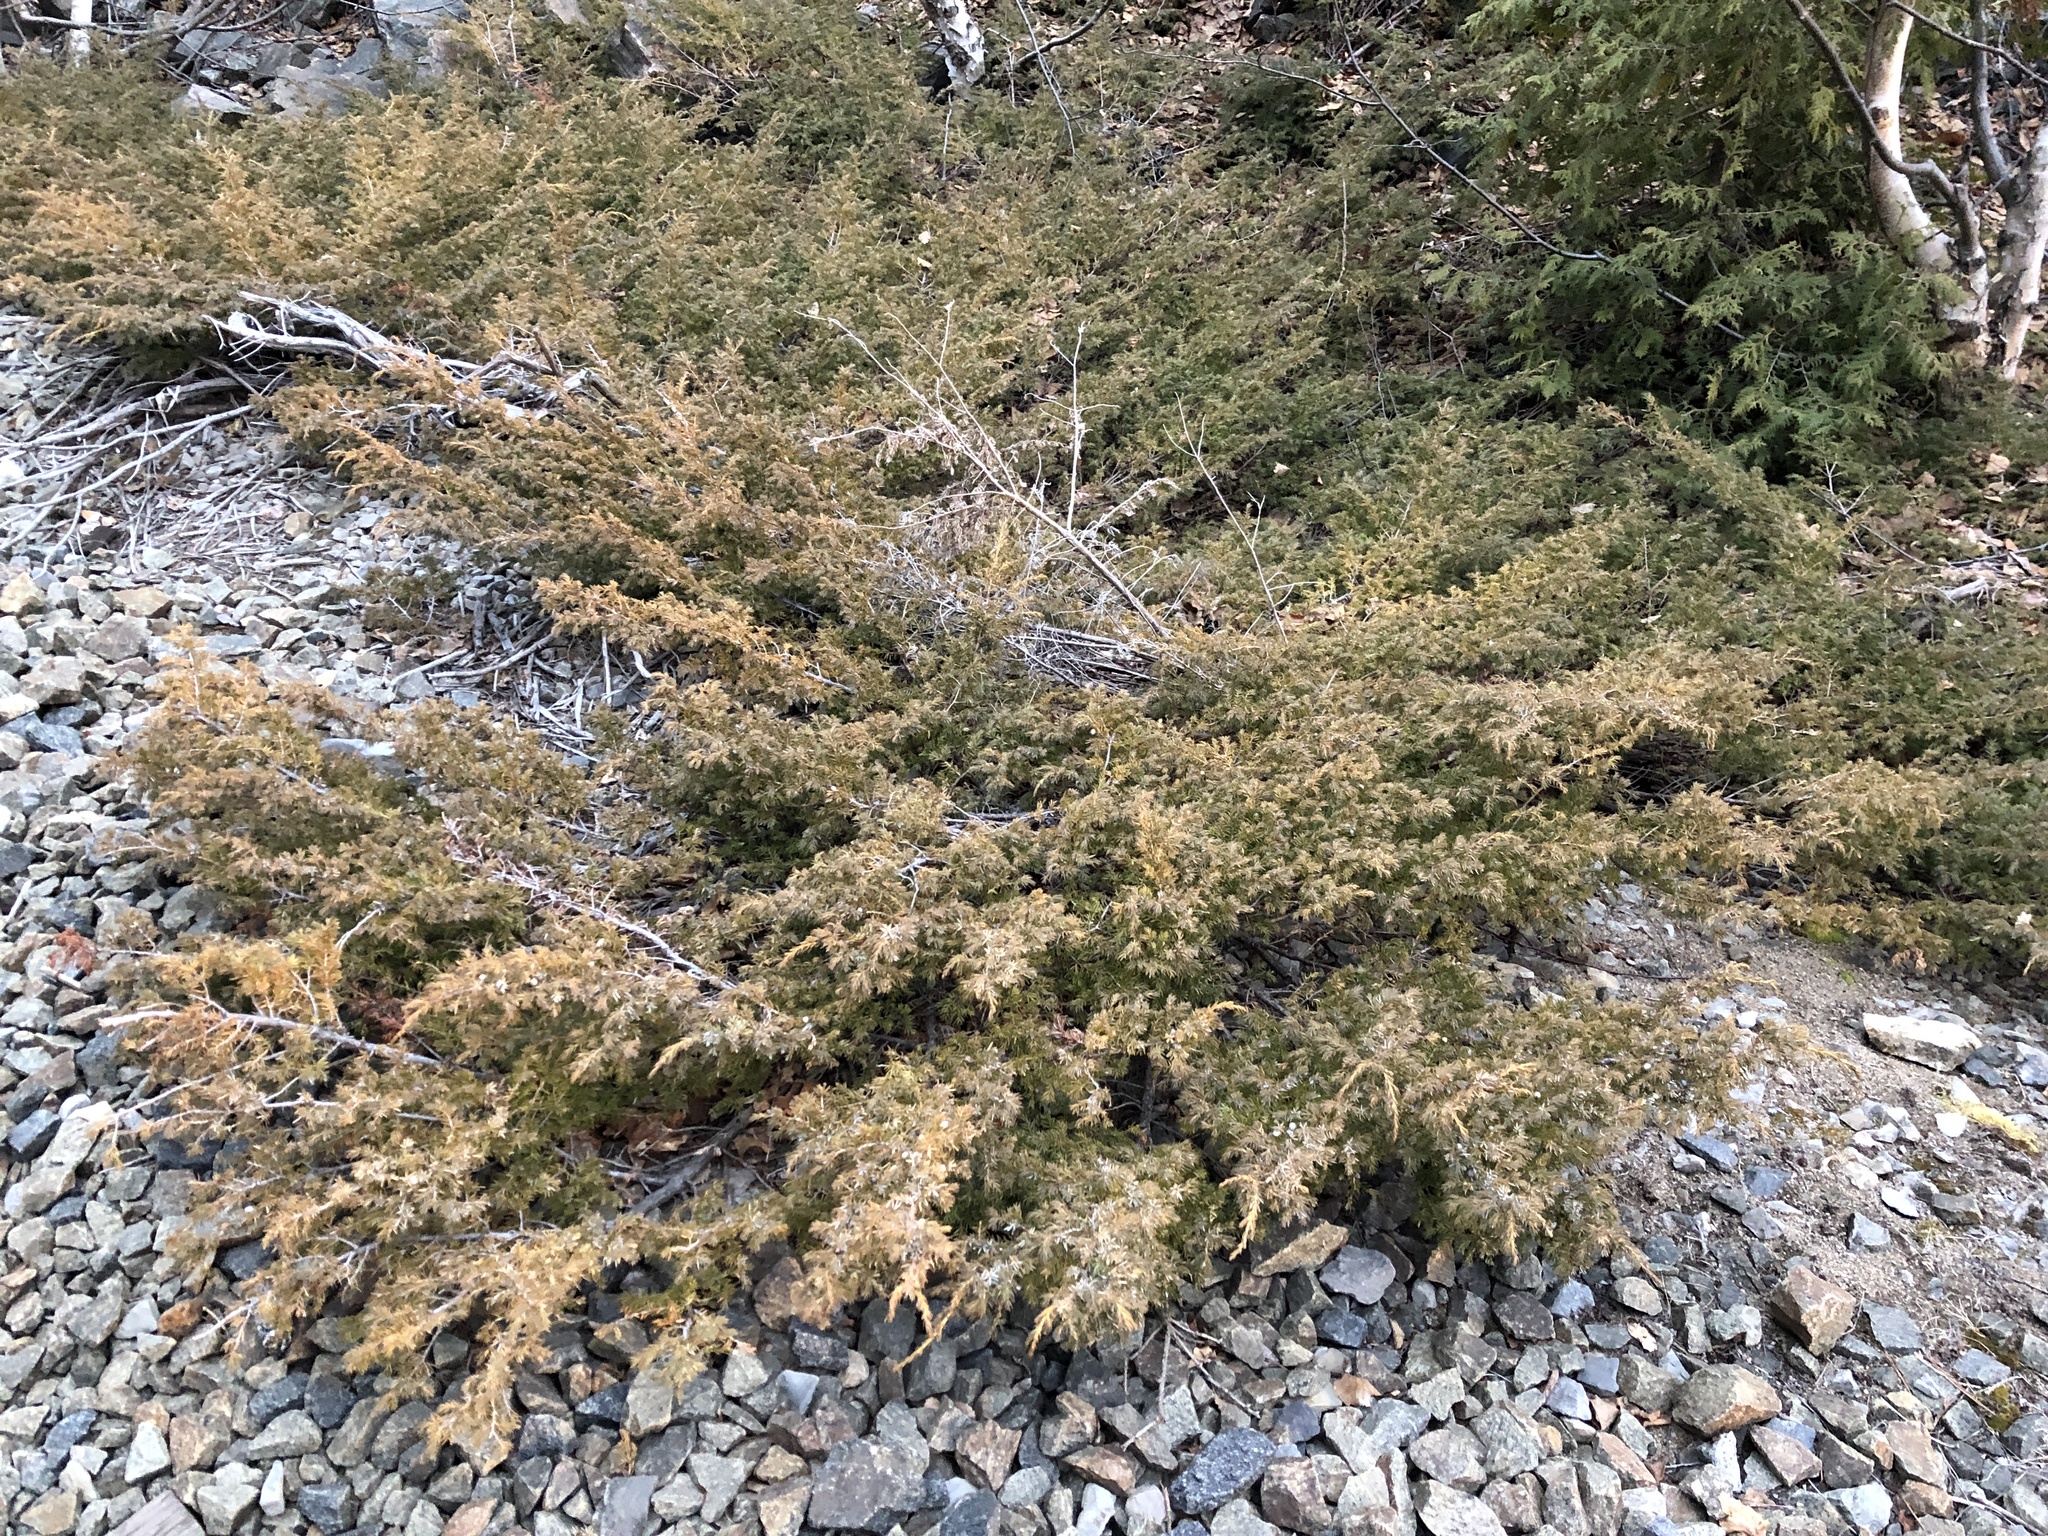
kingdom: Plantae
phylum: Tracheophyta
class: Pinopsida
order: Pinales
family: Cupressaceae
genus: Juniperus
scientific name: Juniperus communis
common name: Common juniper
